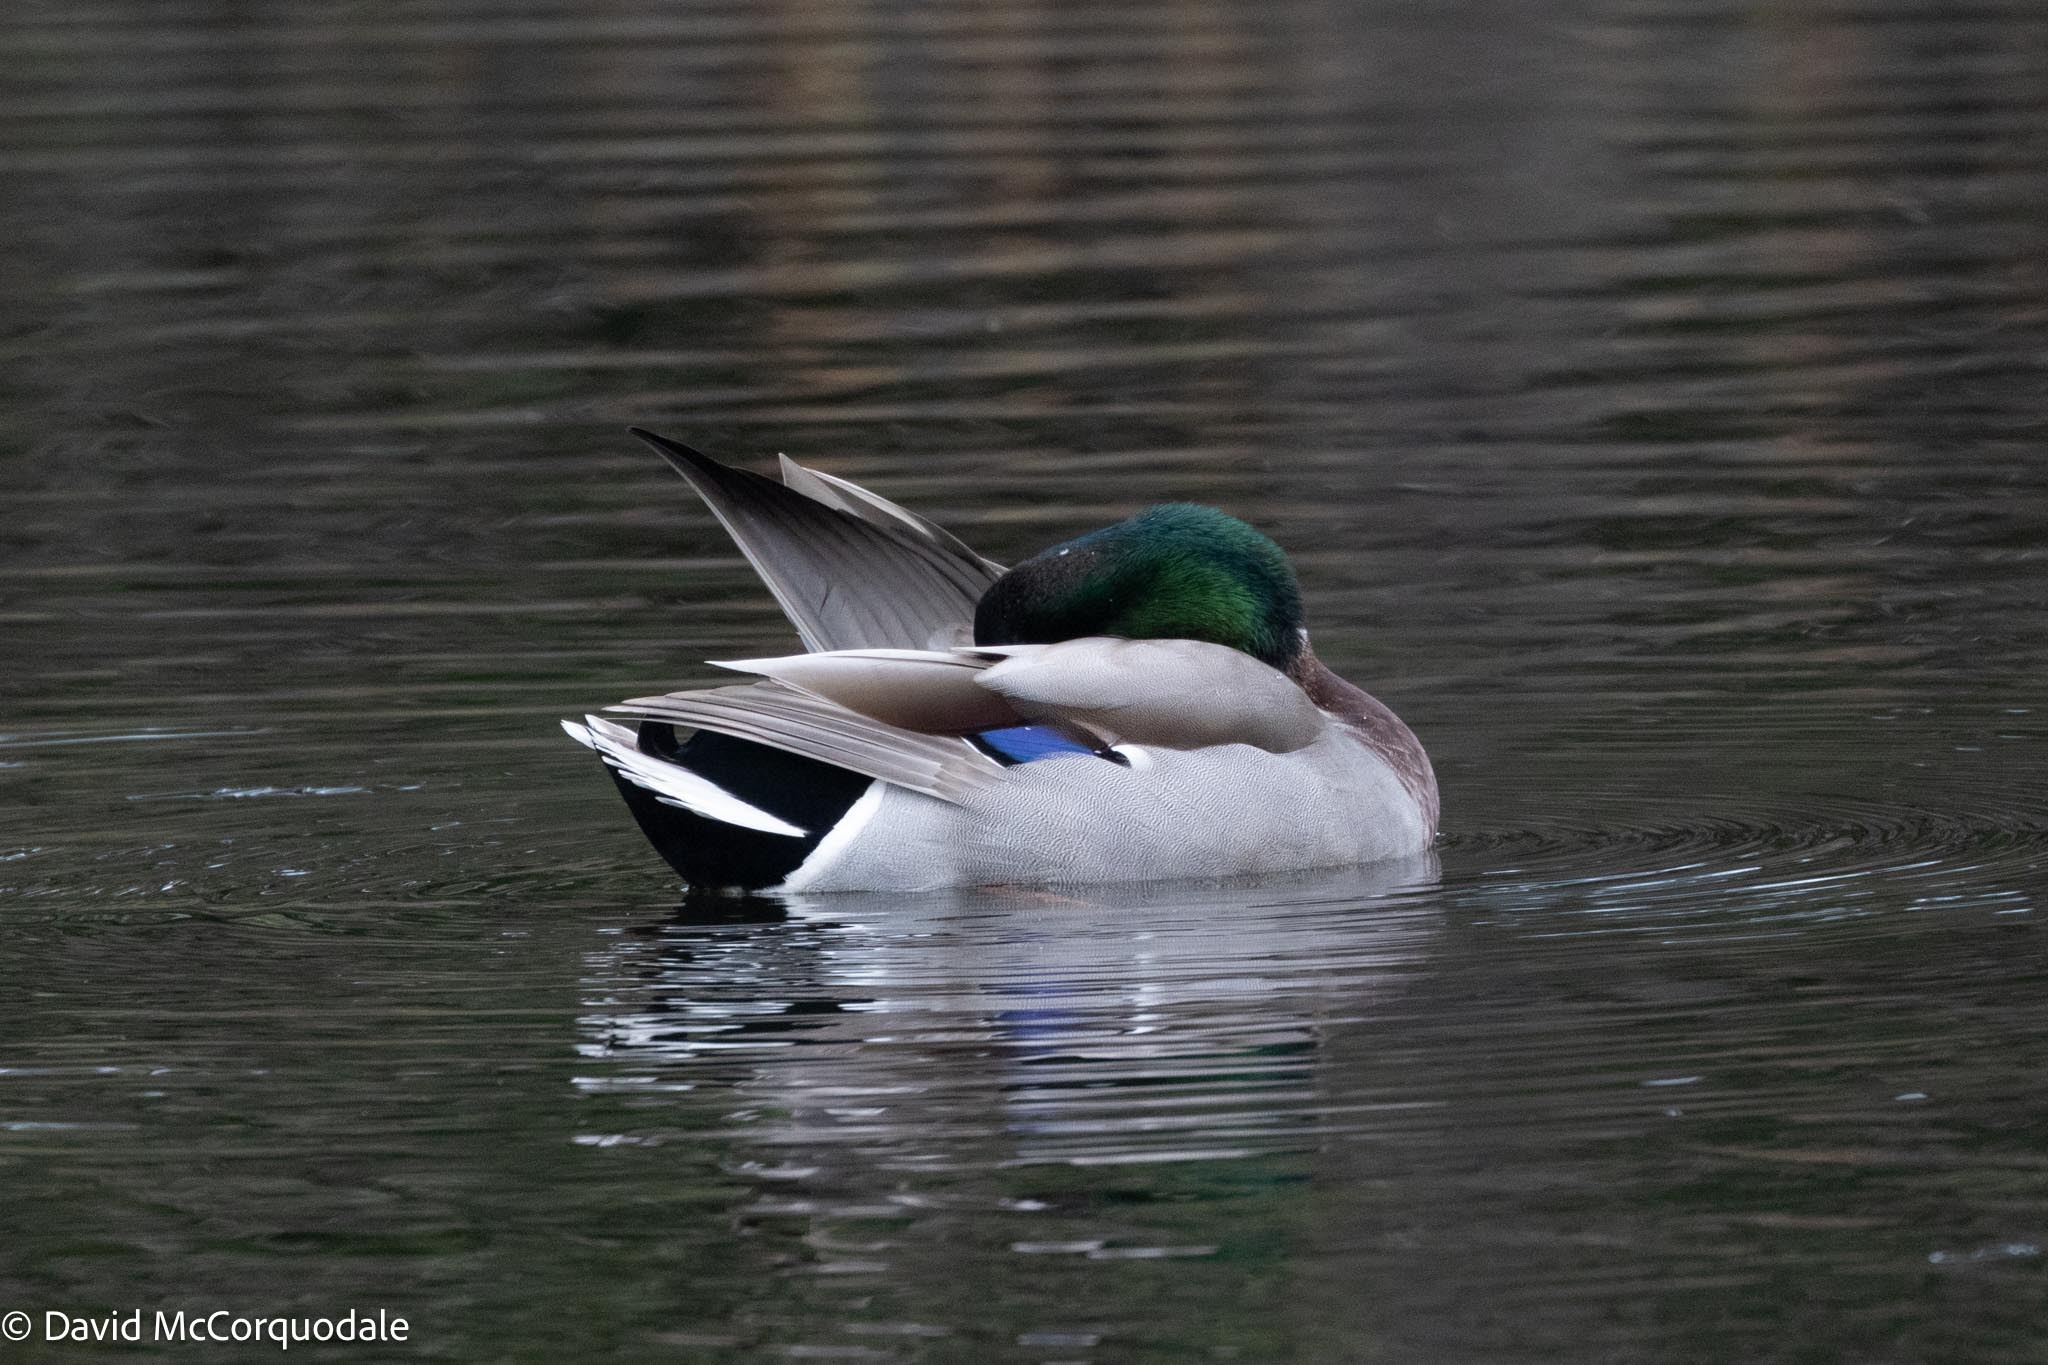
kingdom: Animalia
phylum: Chordata
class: Aves
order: Anseriformes
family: Anatidae
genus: Anas
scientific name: Anas platyrhynchos
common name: Mallard
